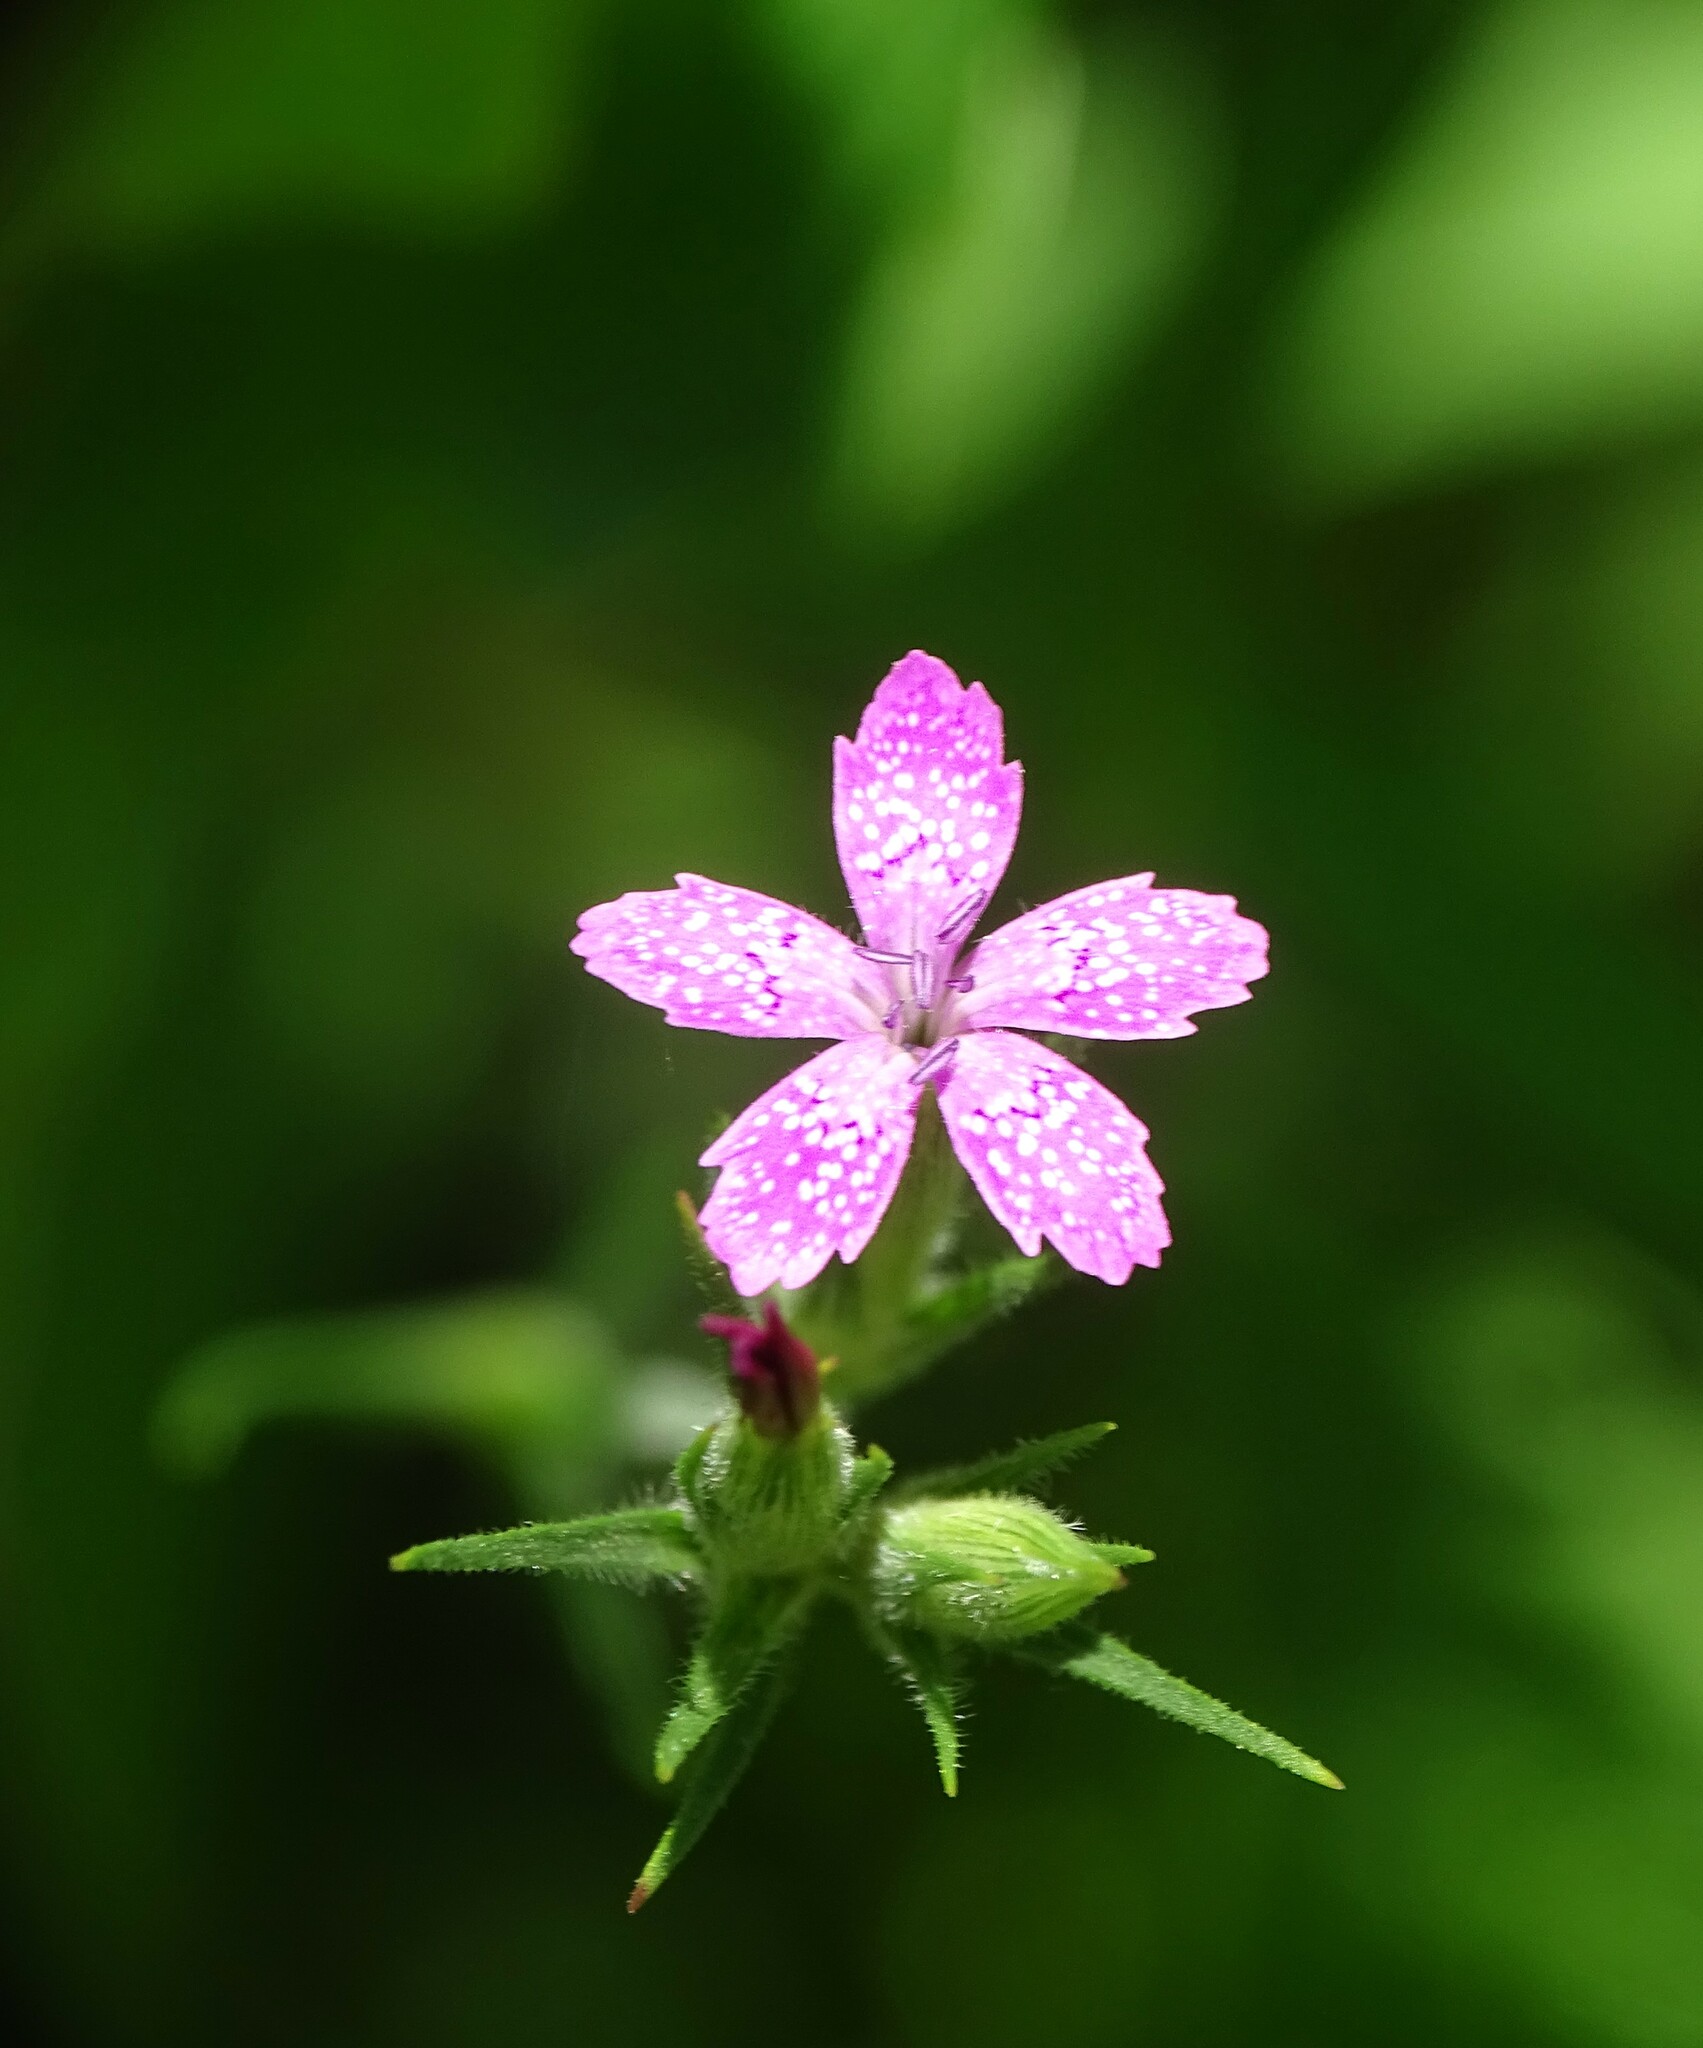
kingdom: Plantae
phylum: Tracheophyta
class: Magnoliopsida
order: Caryophyllales
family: Caryophyllaceae
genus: Dianthus
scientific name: Dianthus armeria
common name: Deptford pink
